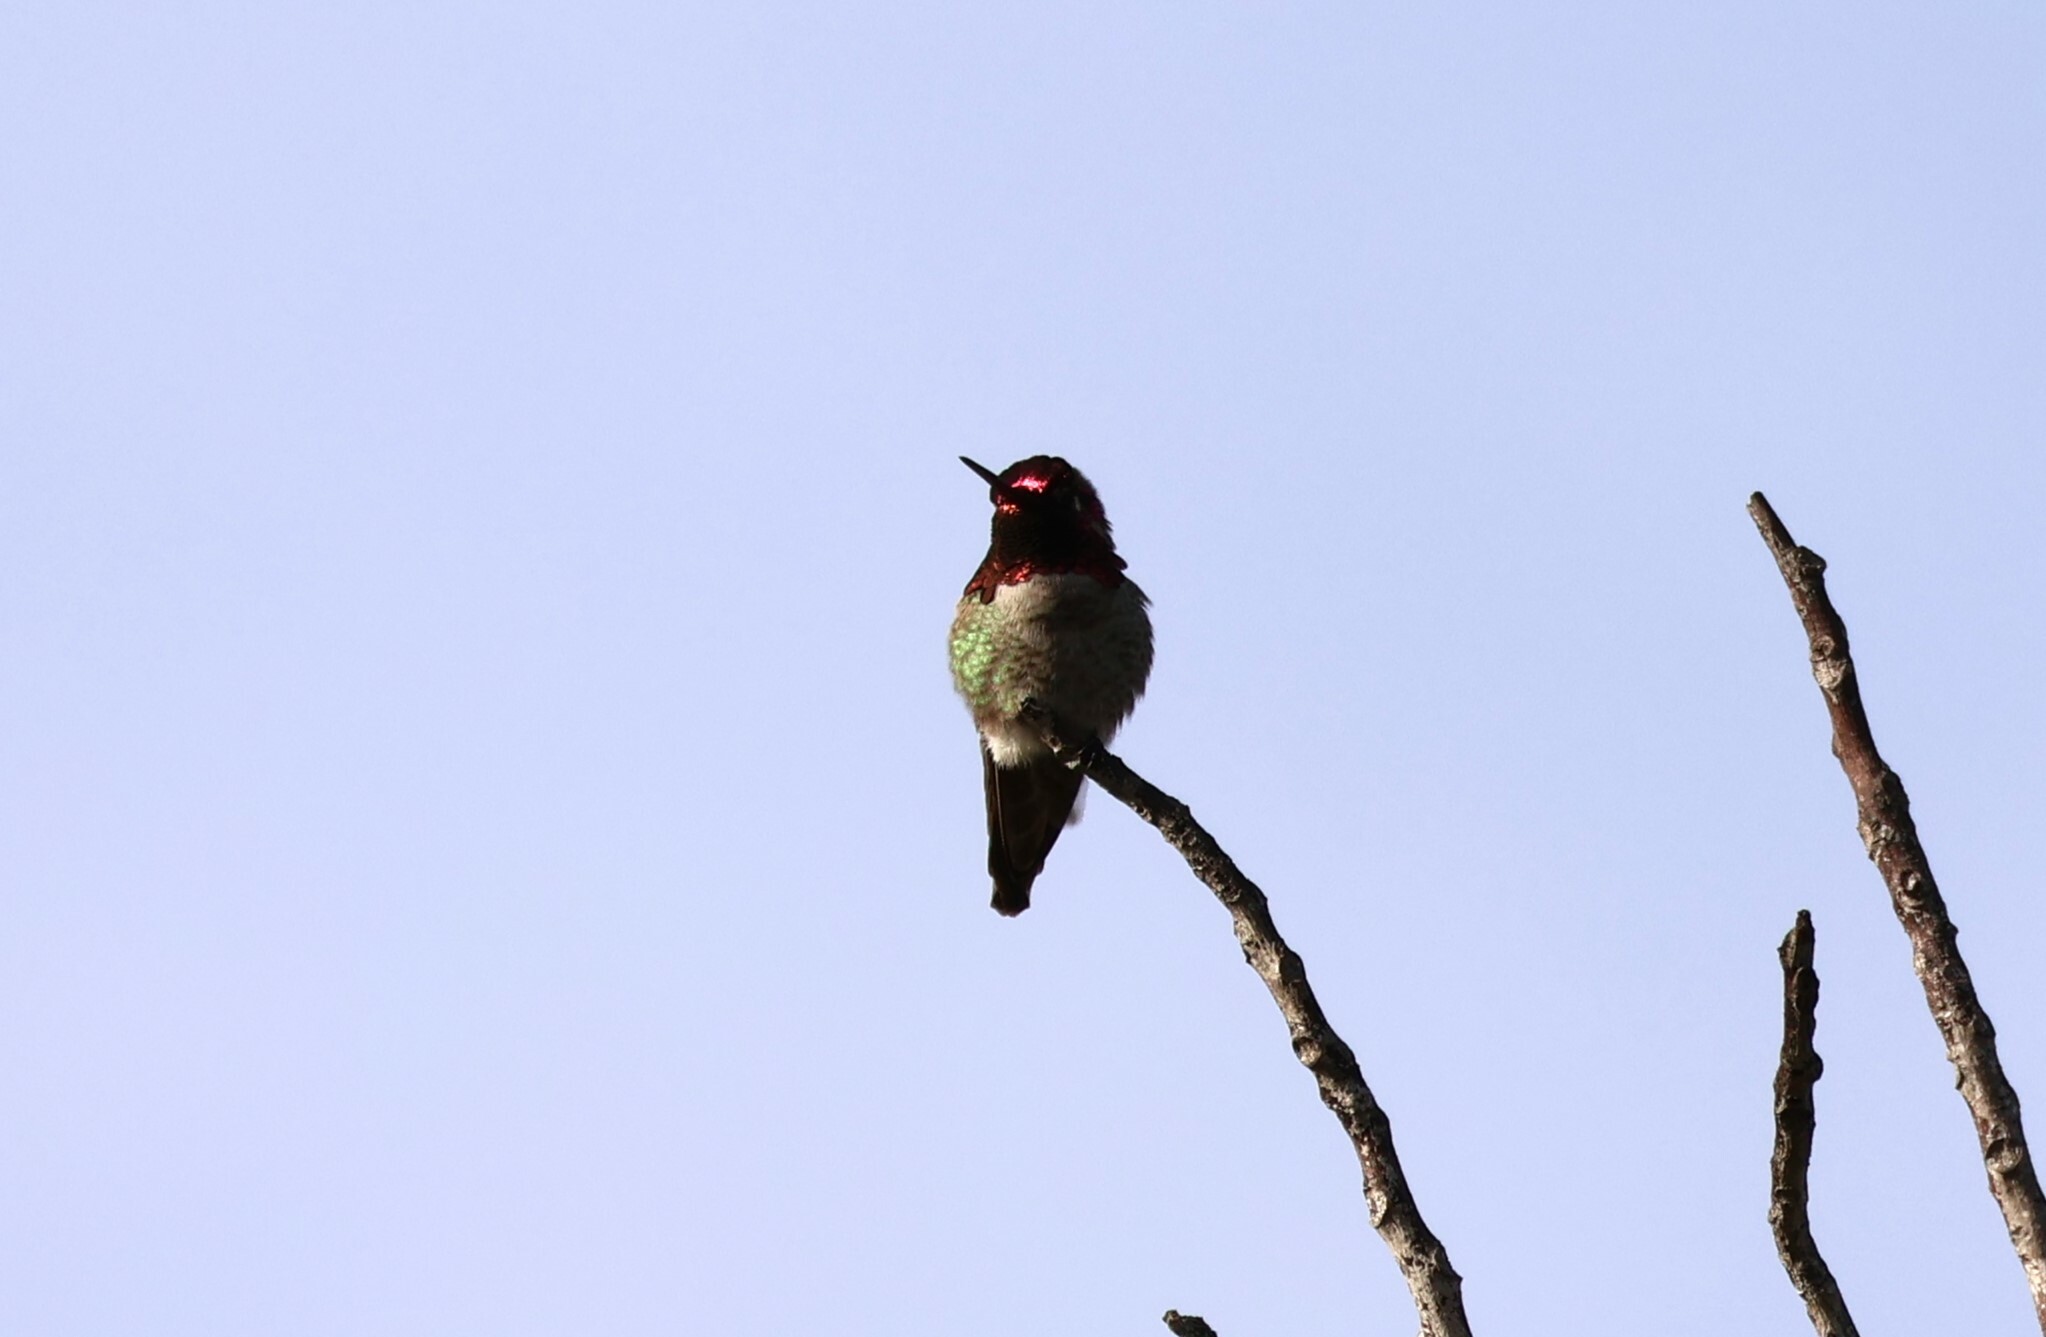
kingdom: Animalia
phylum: Chordata
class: Aves
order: Apodiformes
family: Trochilidae
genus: Calypte
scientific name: Calypte anna
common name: Anna's hummingbird
